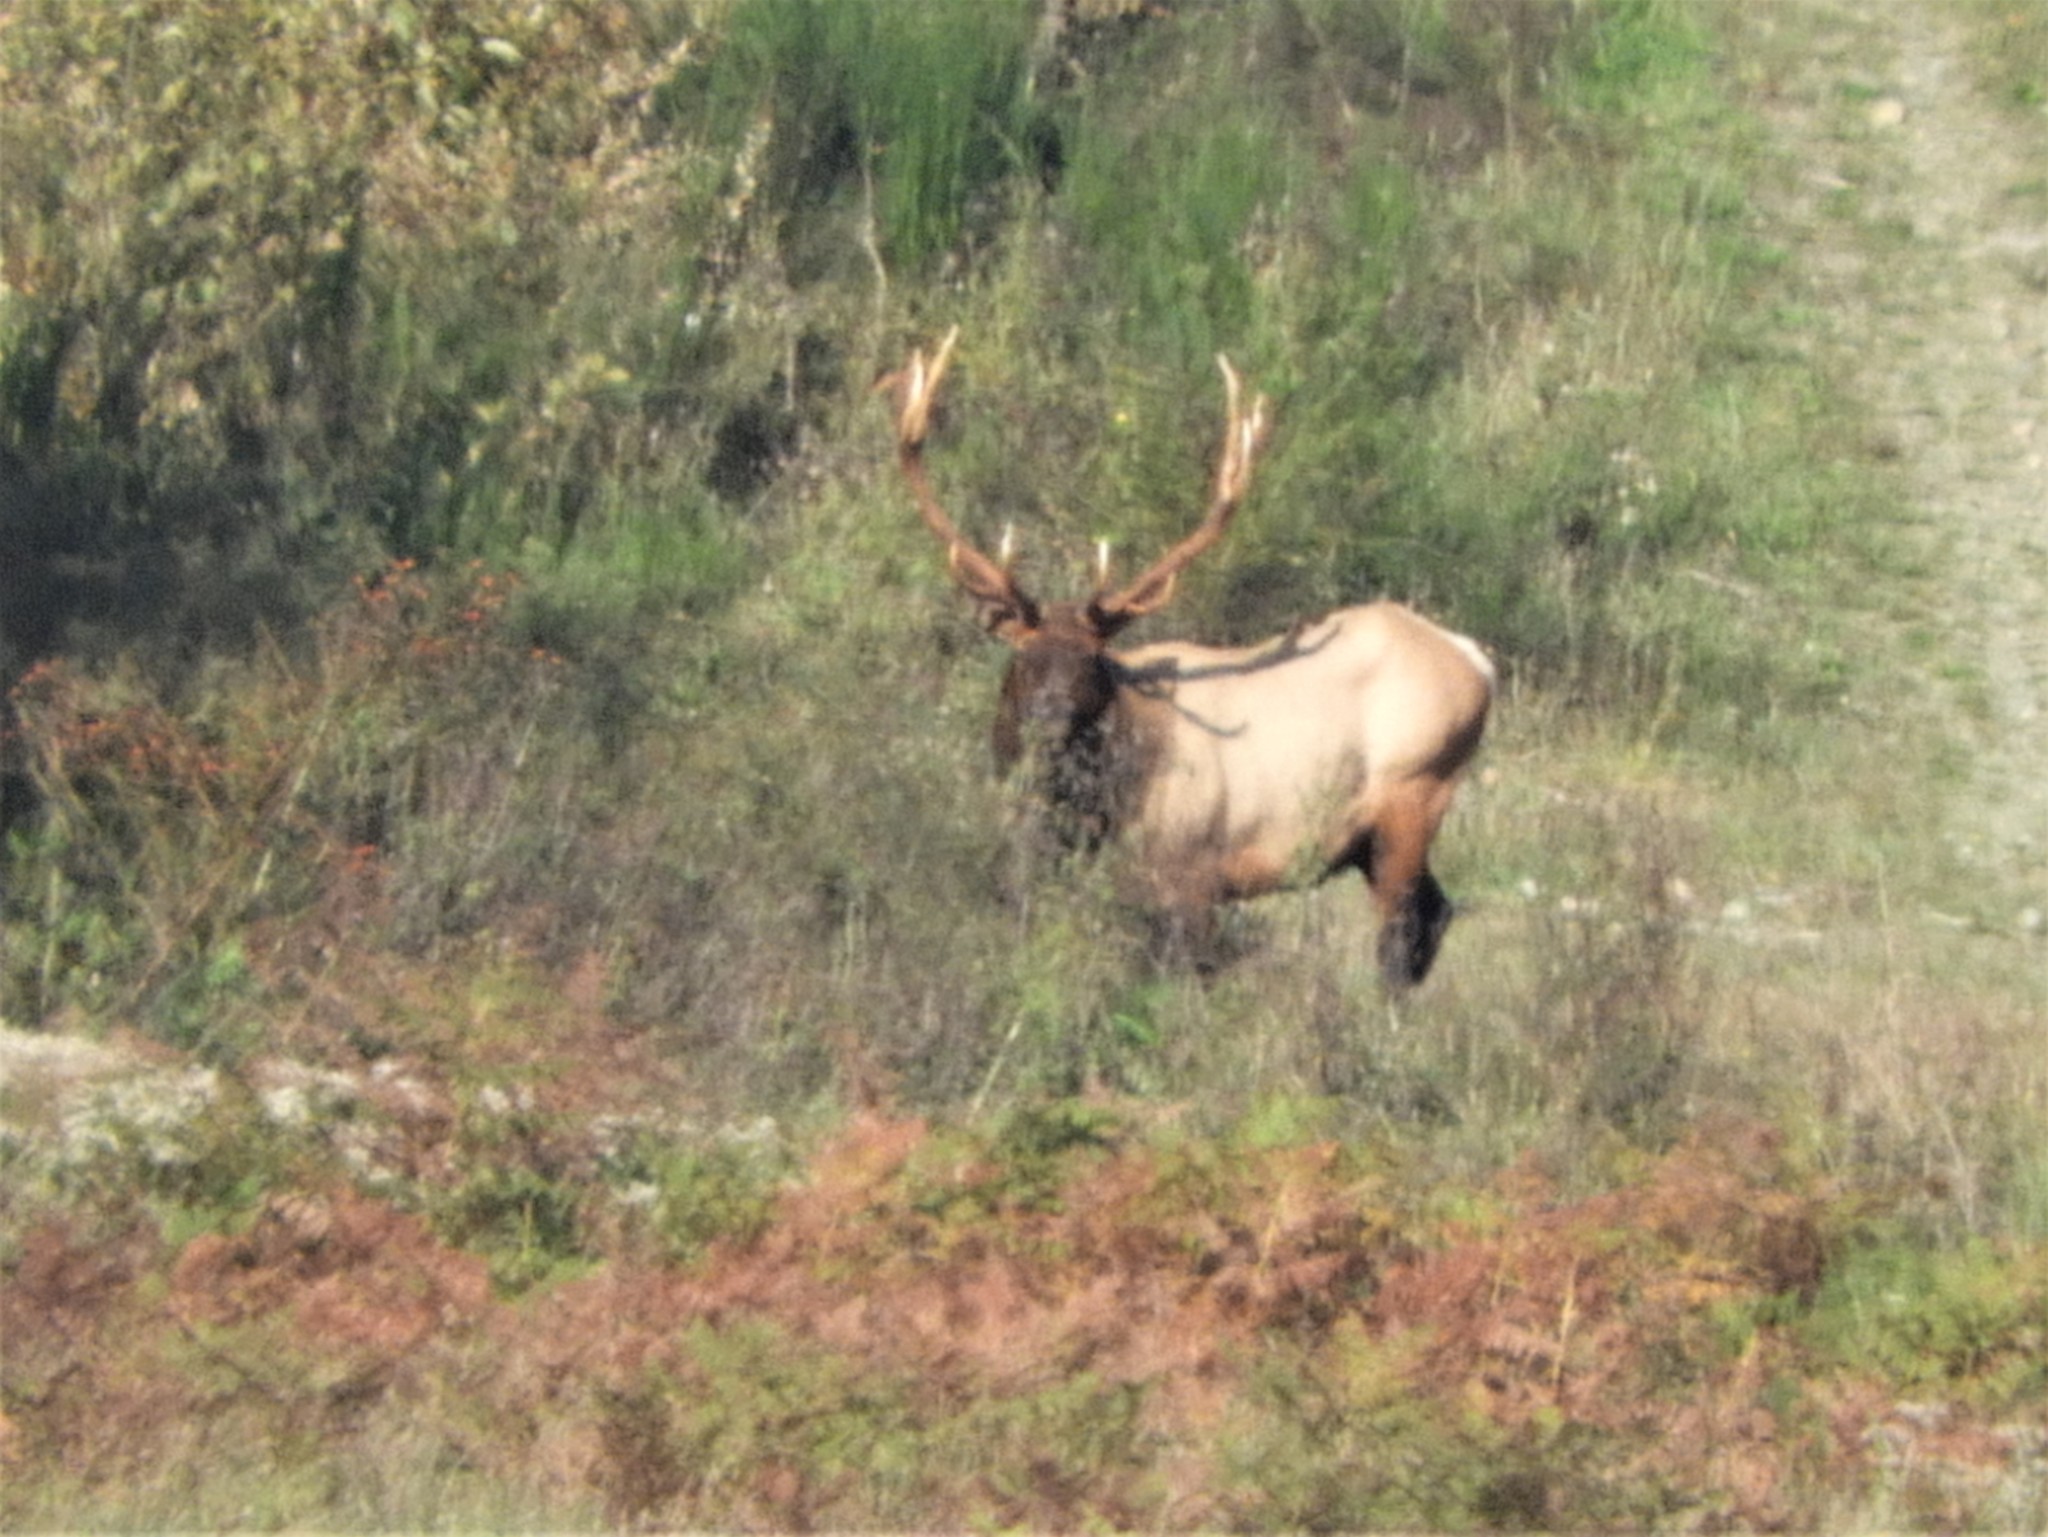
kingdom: Animalia
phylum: Chordata
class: Mammalia
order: Artiodactyla
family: Cervidae
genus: Cervus
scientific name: Cervus elaphus
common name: Red deer
